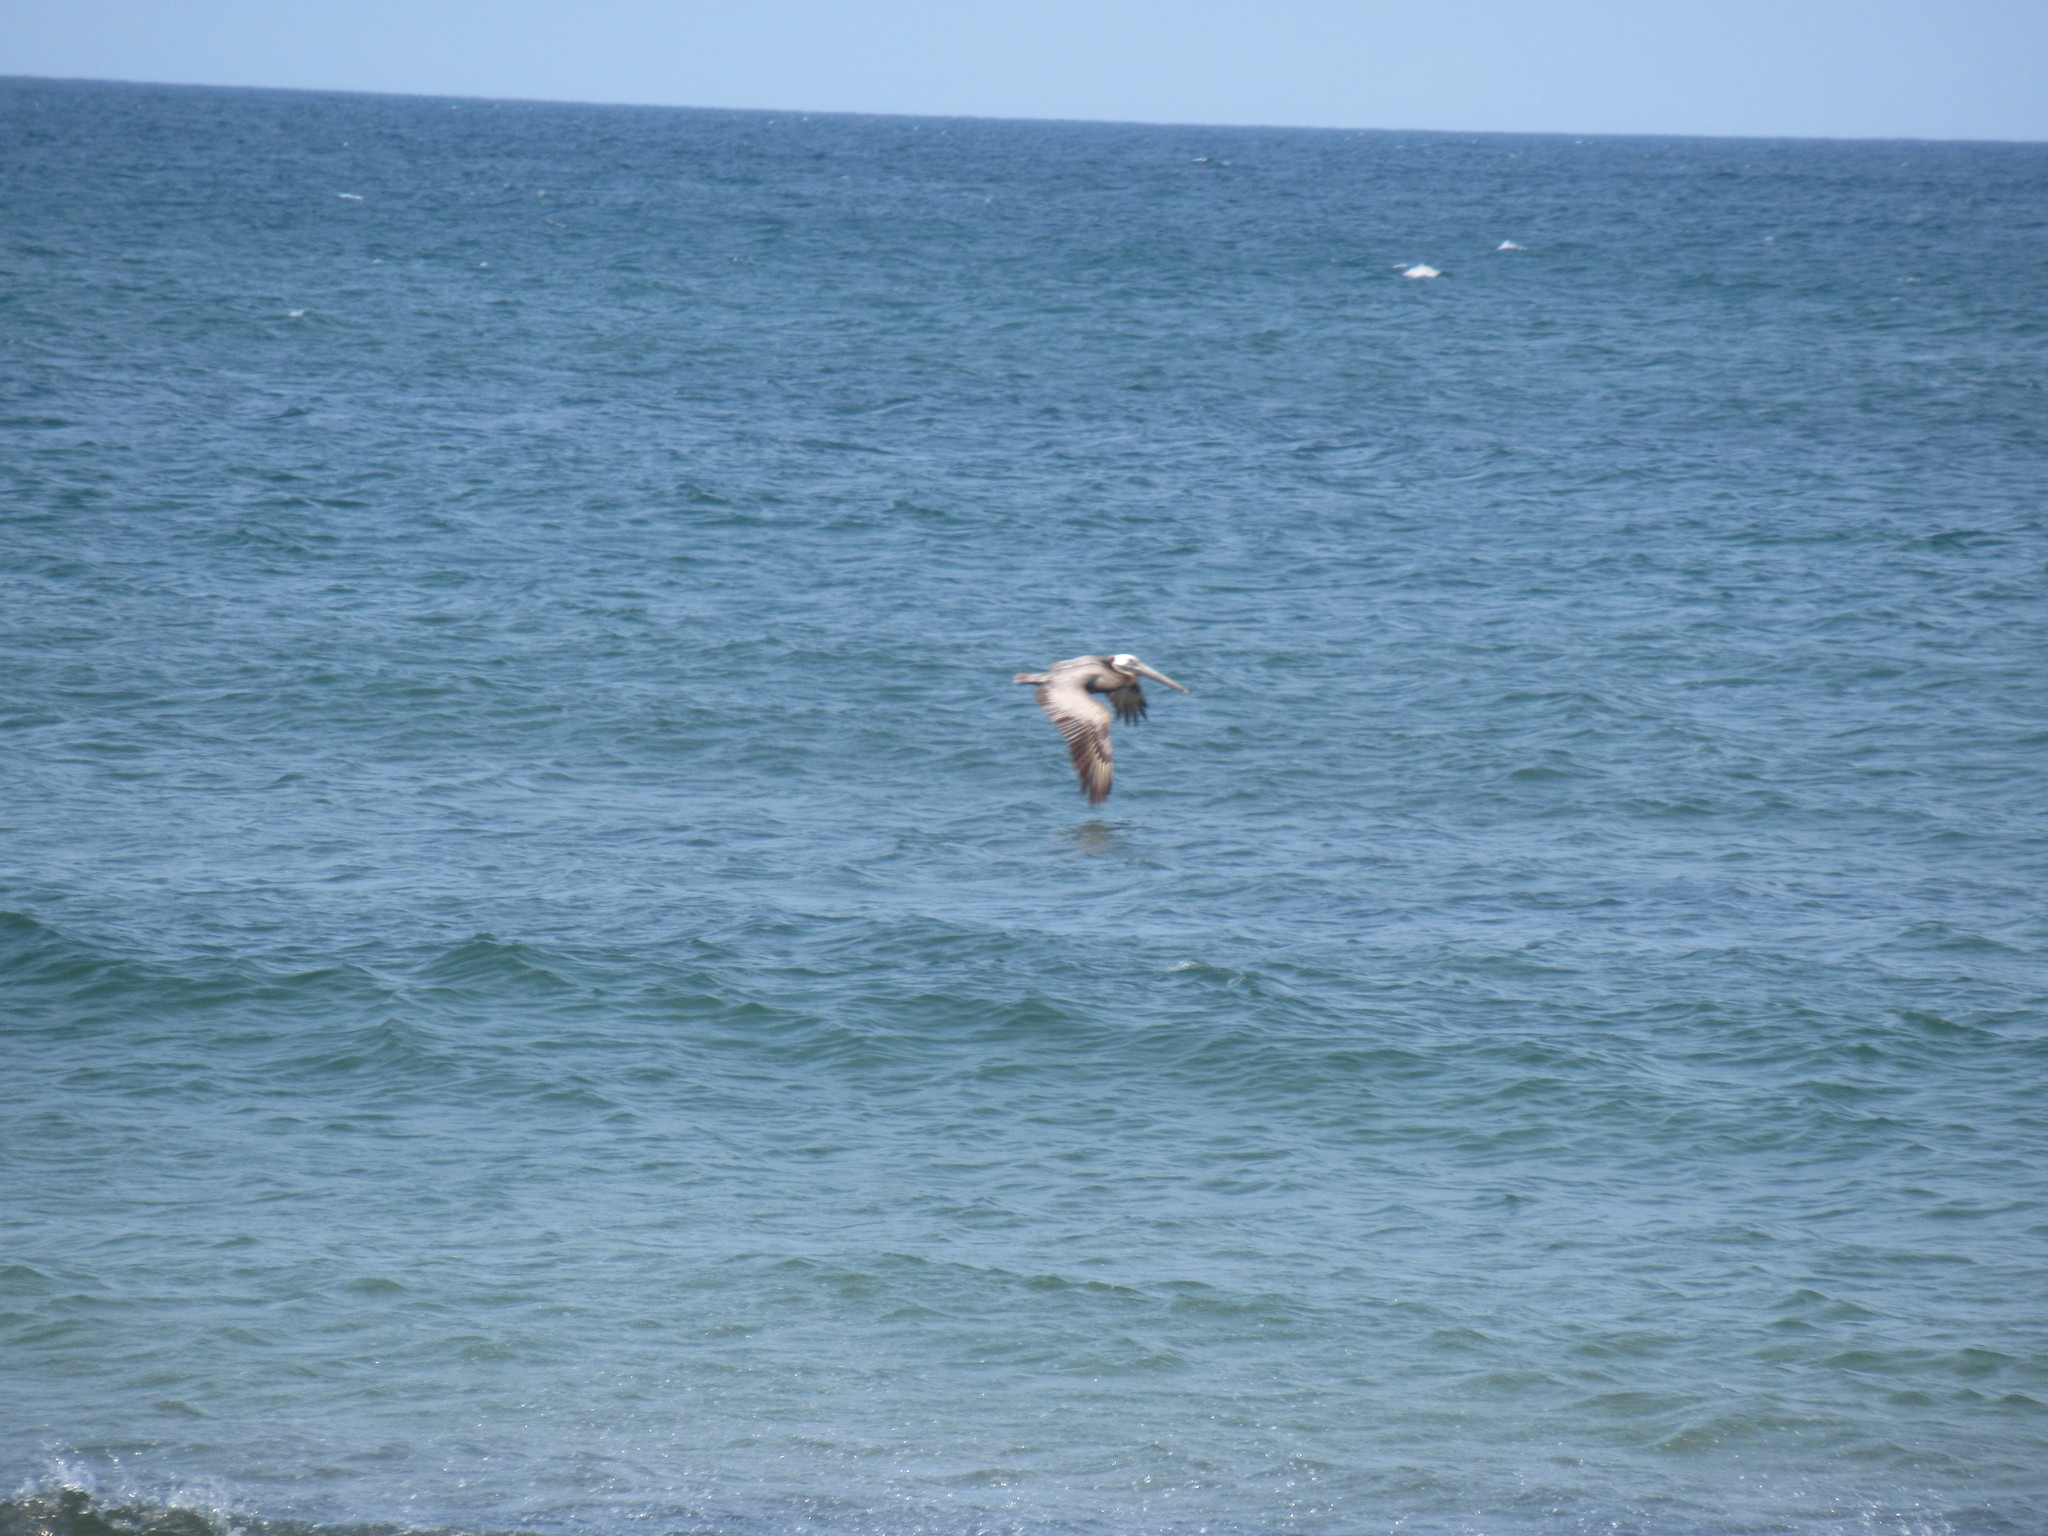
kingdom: Animalia
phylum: Chordata
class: Aves
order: Pelecaniformes
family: Pelecanidae
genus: Pelecanus
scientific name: Pelecanus occidentalis
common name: Brown pelican
